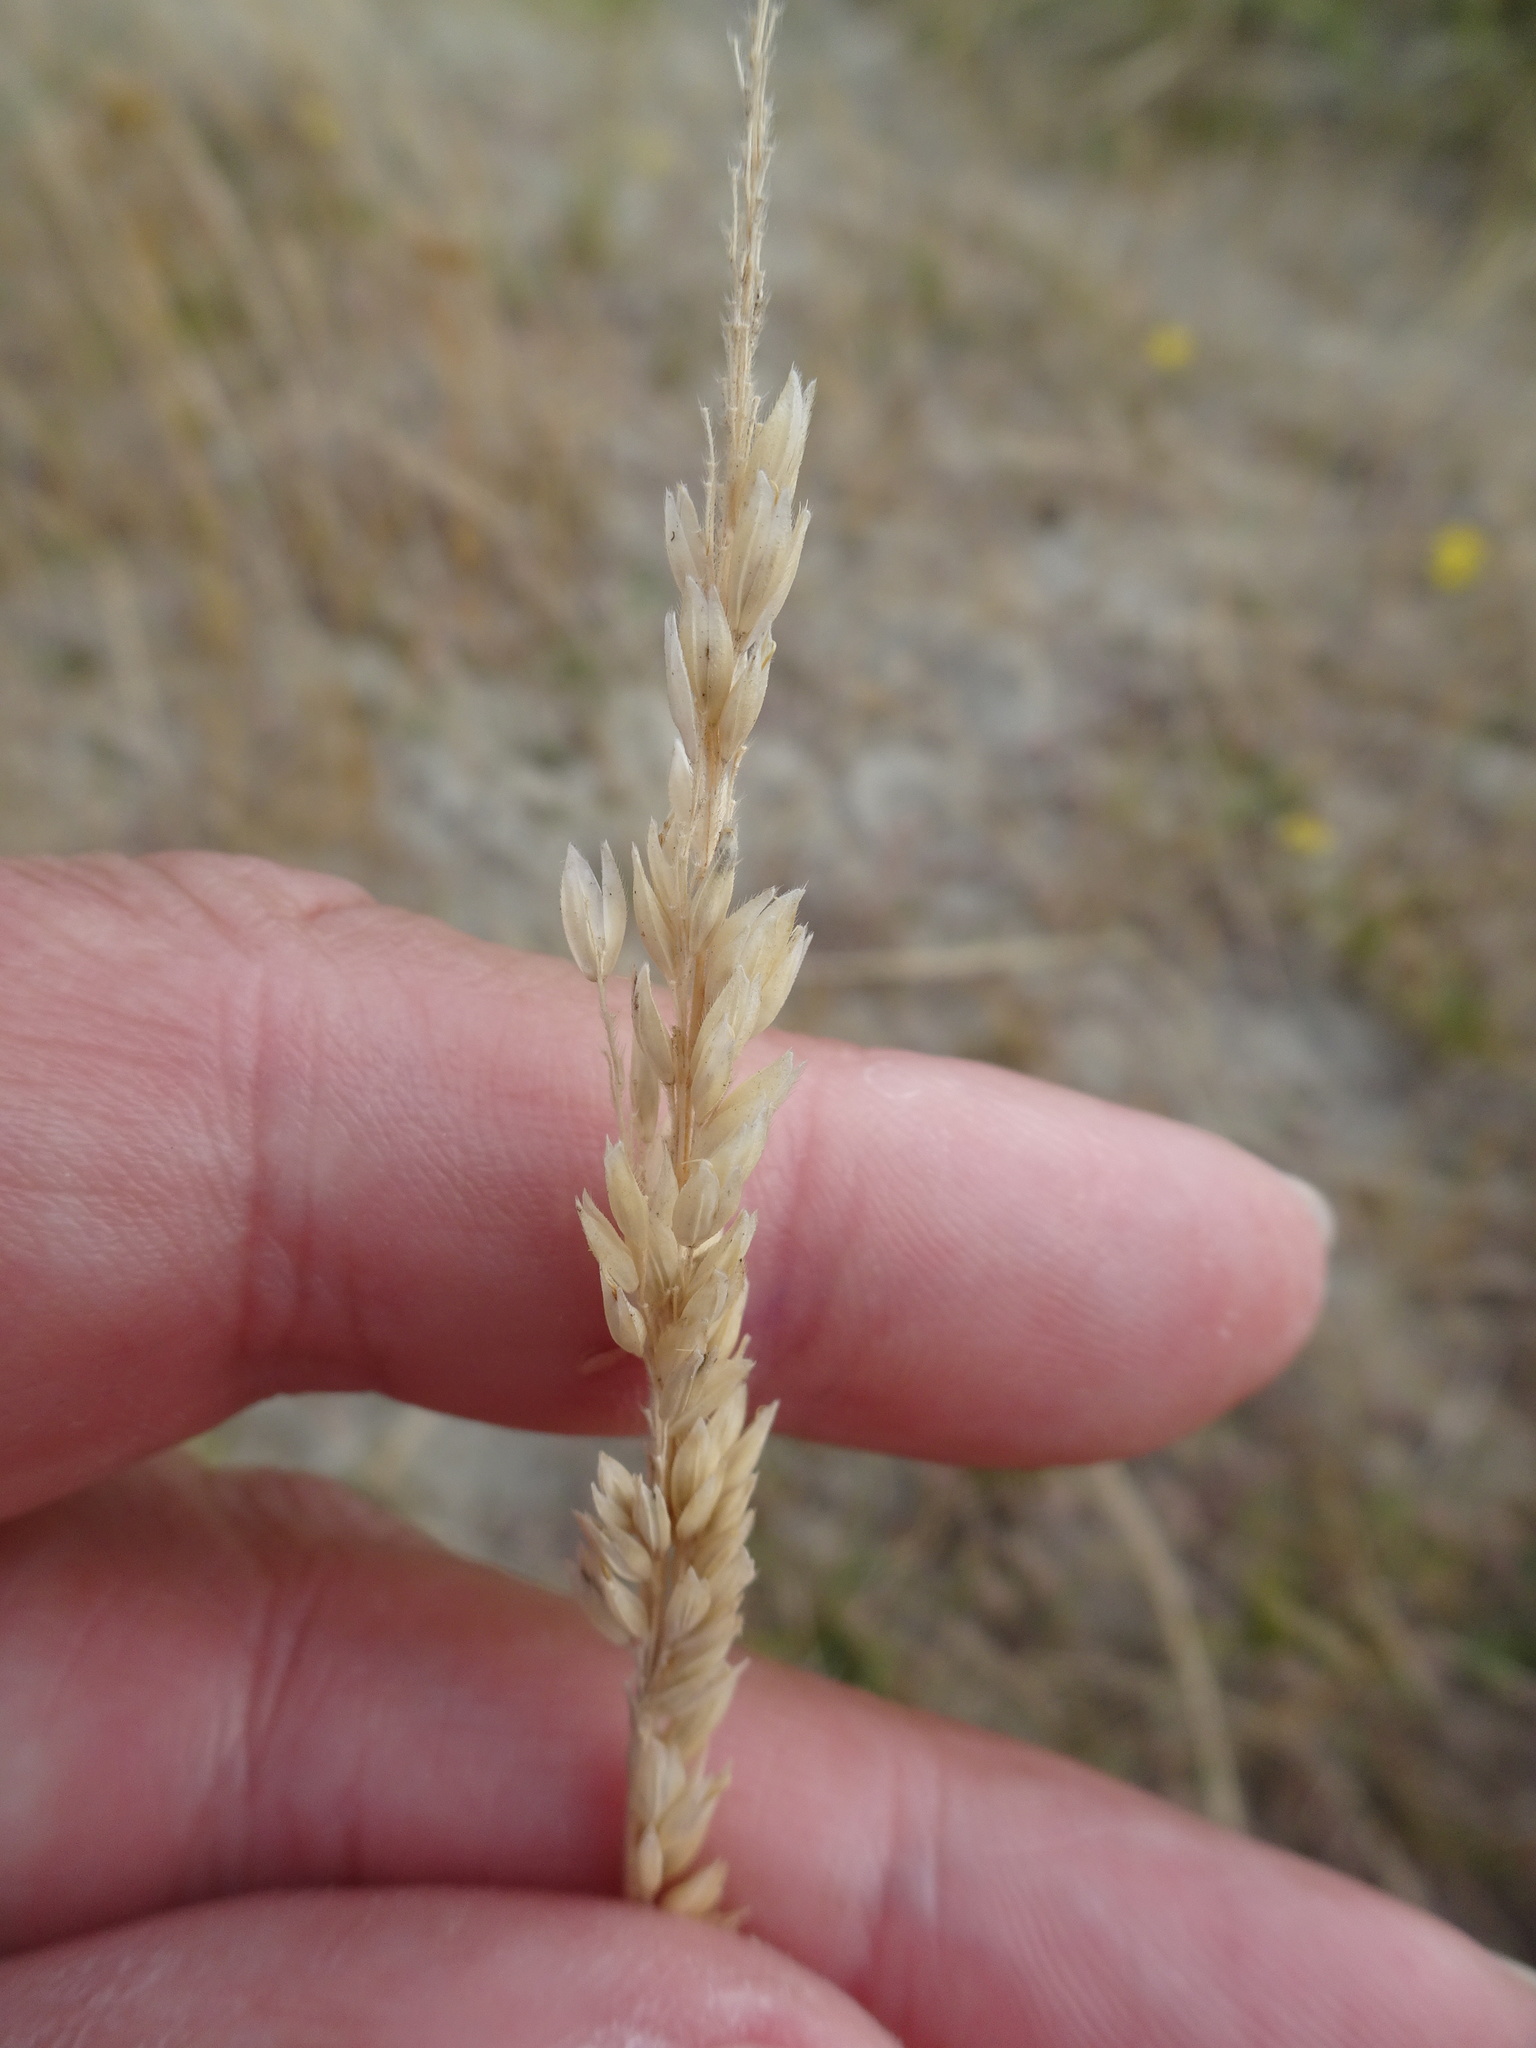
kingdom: Plantae
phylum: Tracheophyta
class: Liliopsida
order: Poales
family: Poaceae
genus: Holcus
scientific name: Holcus lanatus
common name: Yorkshire-fog
